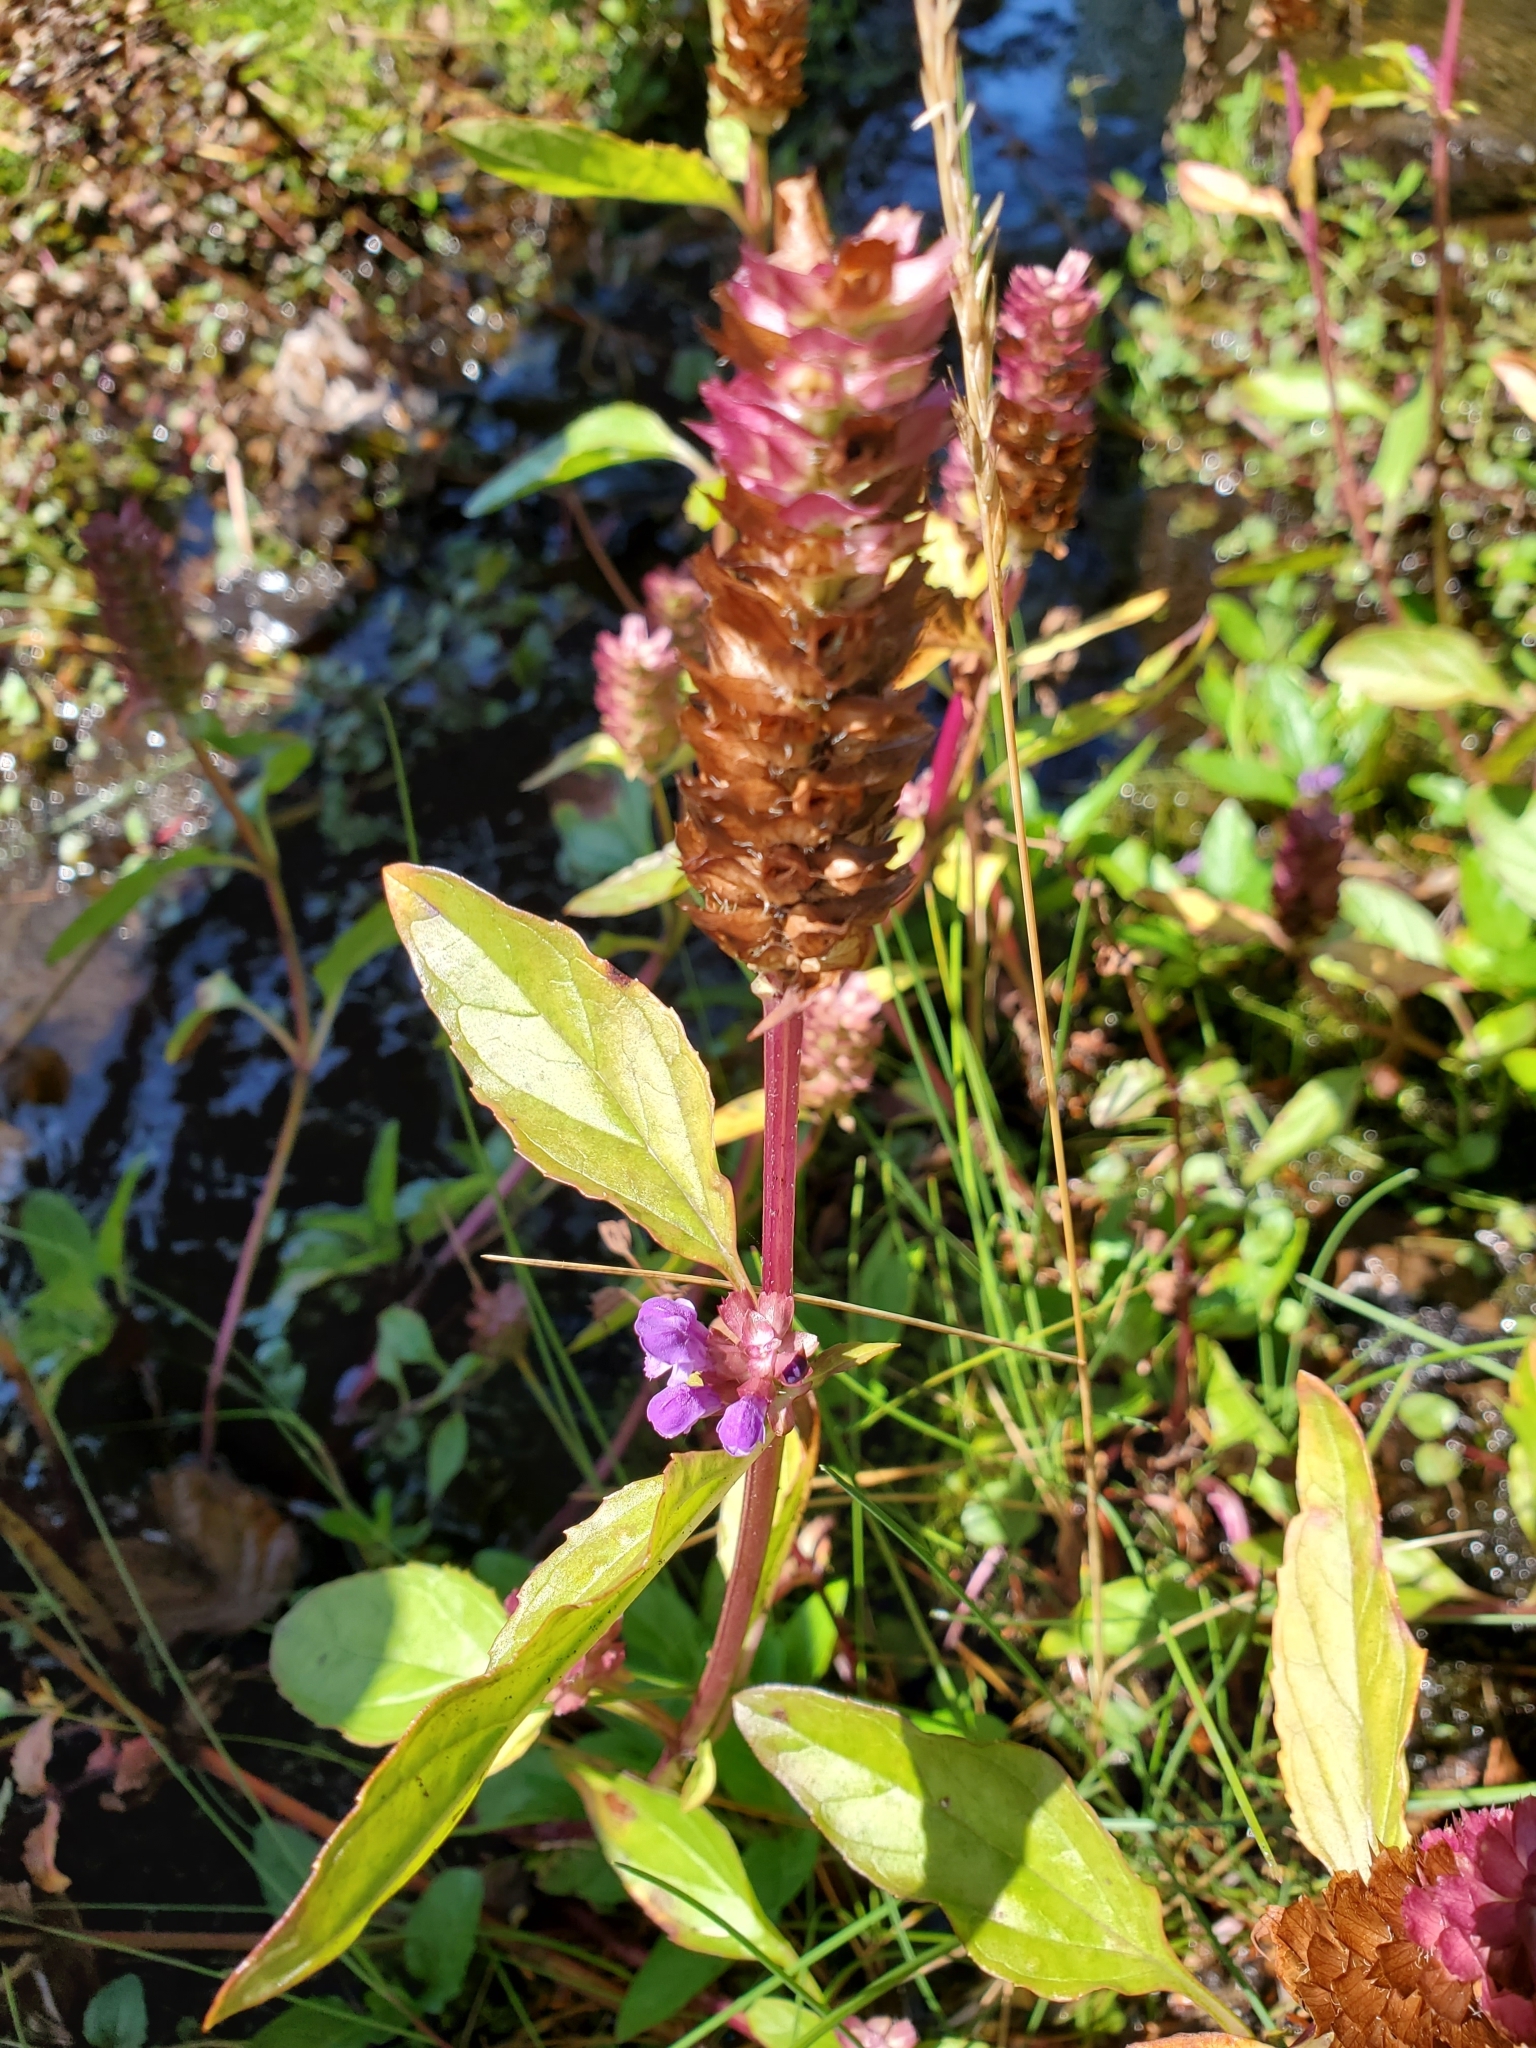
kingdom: Plantae
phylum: Tracheophyta
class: Magnoliopsida
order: Lamiales
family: Lamiaceae
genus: Prunella
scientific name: Prunella vulgaris
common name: Heal-all
